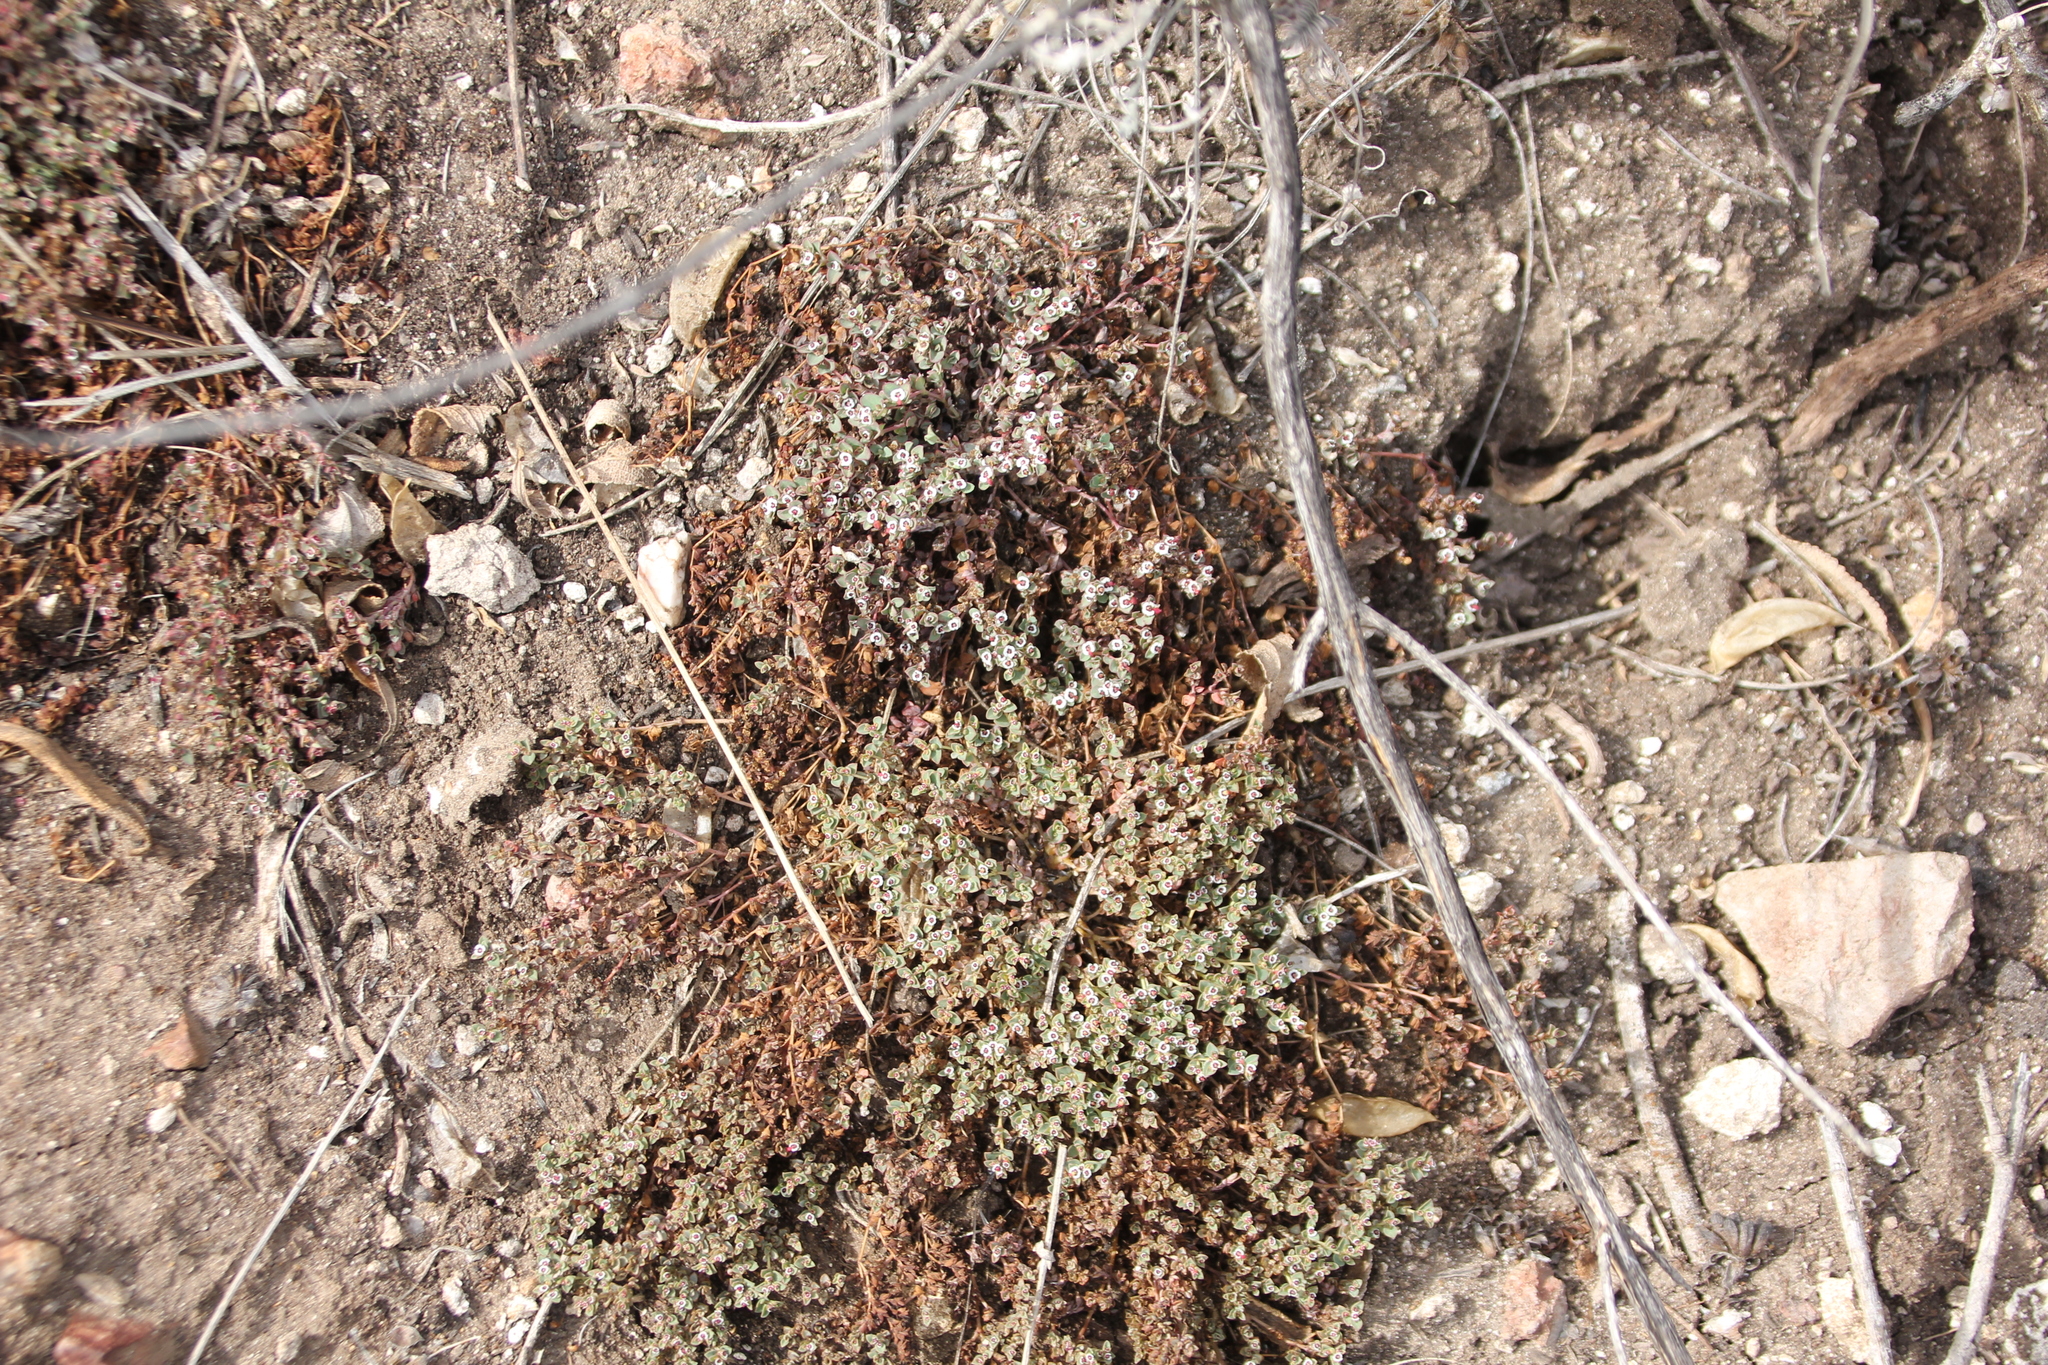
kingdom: Plantae
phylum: Tracheophyta
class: Magnoliopsida
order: Malpighiales
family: Euphorbiaceae
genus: Euphorbia
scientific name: Euphorbia polycarpa
